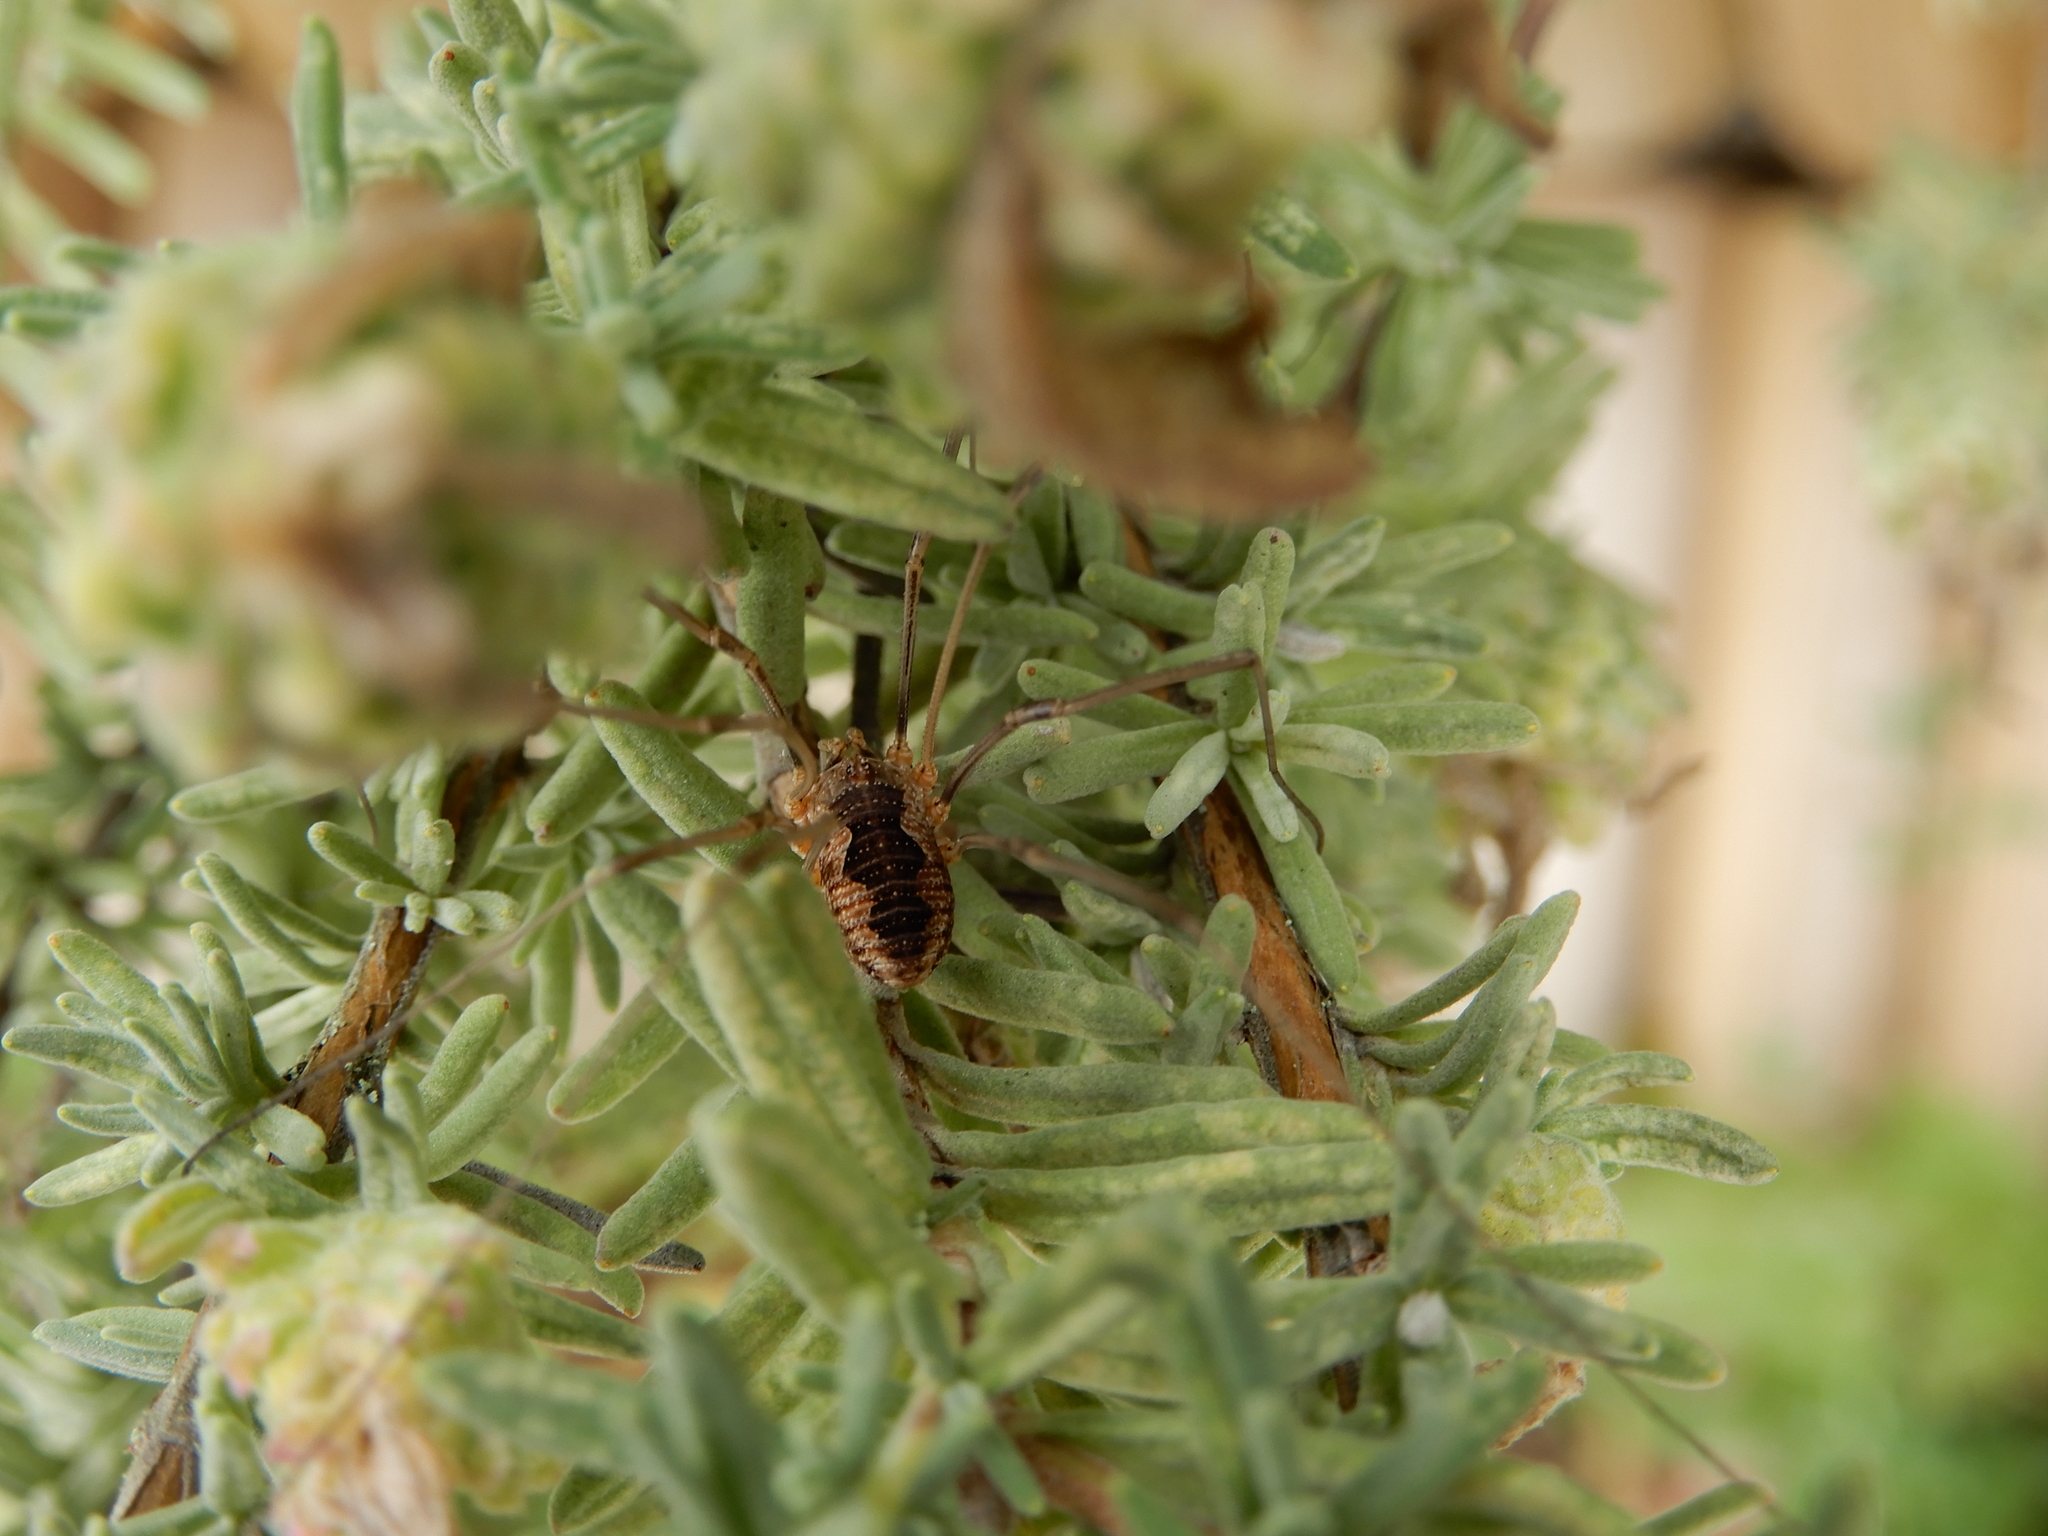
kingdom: Animalia
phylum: Arthropoda
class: Arachnida
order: Opiliones
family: Phalangiidae
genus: Phalangium
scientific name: Phalangium opilio
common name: Daddy longleg
